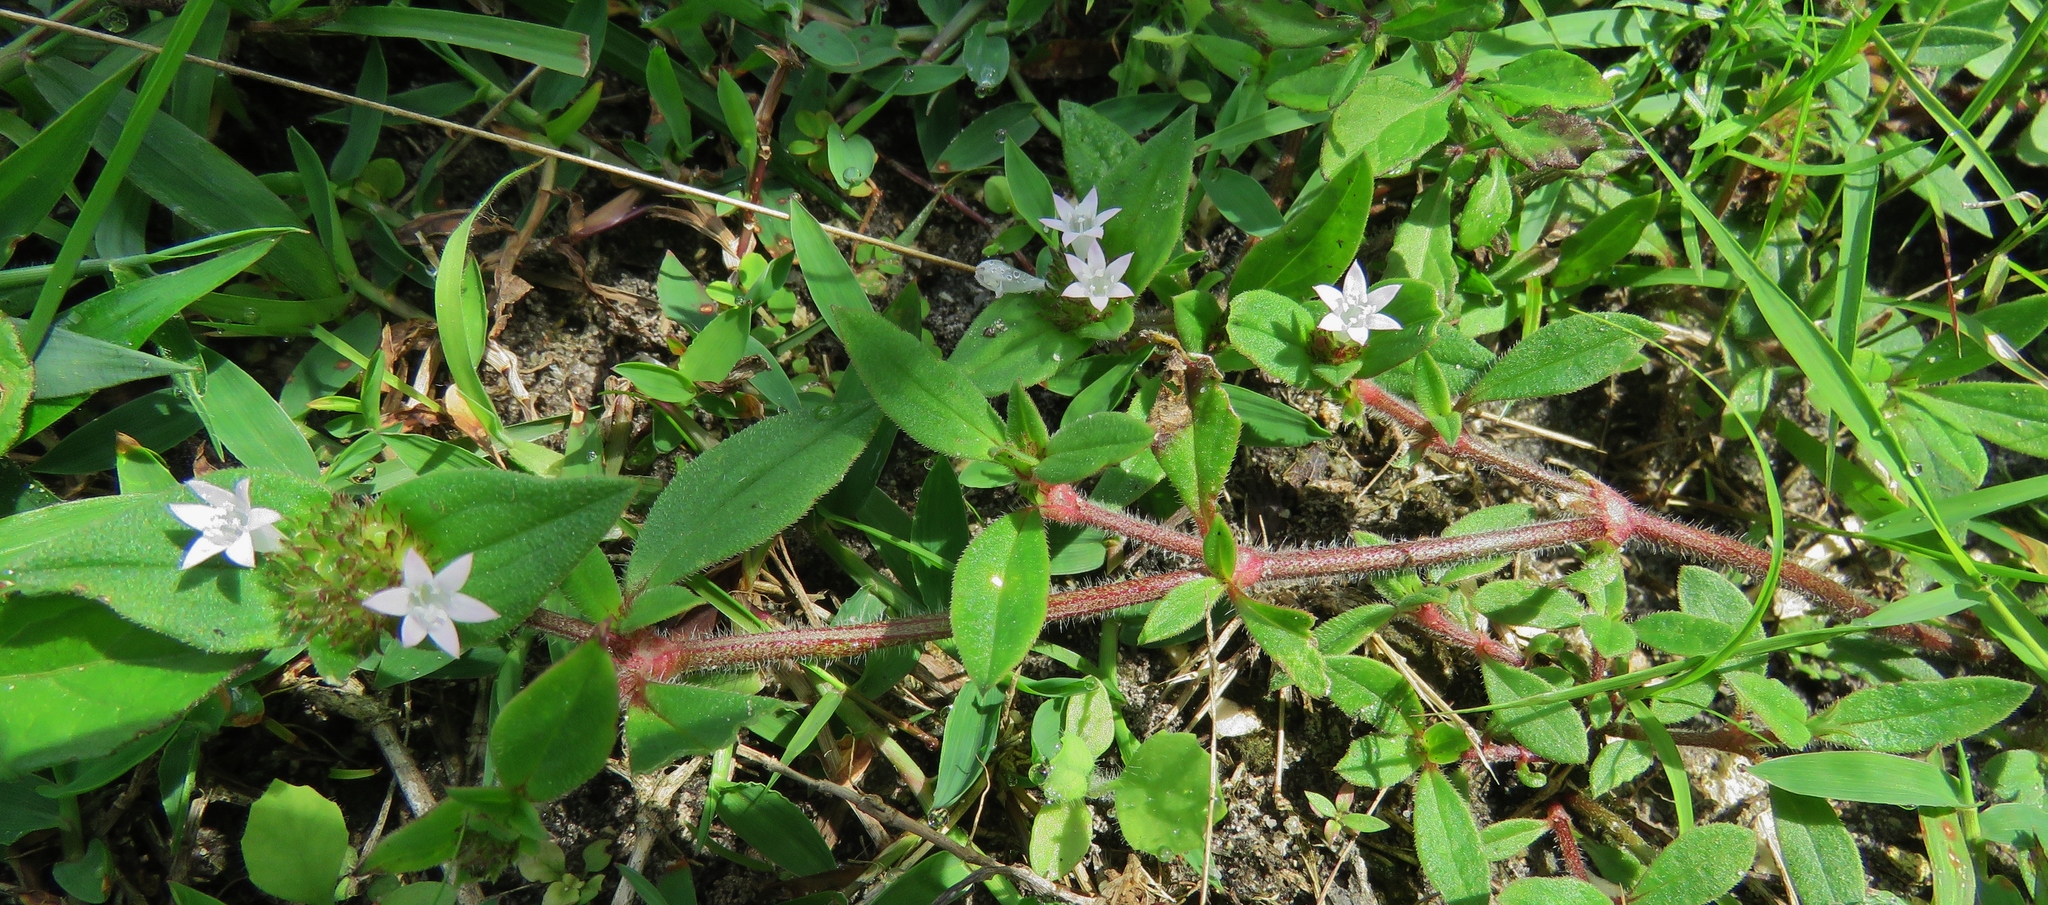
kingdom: Plantae
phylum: Tracheophyta
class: Magnoliopsida
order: Gentianales
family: Rubiaceae
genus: Richardia
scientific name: Richardia scabra
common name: Rough mexican clover
